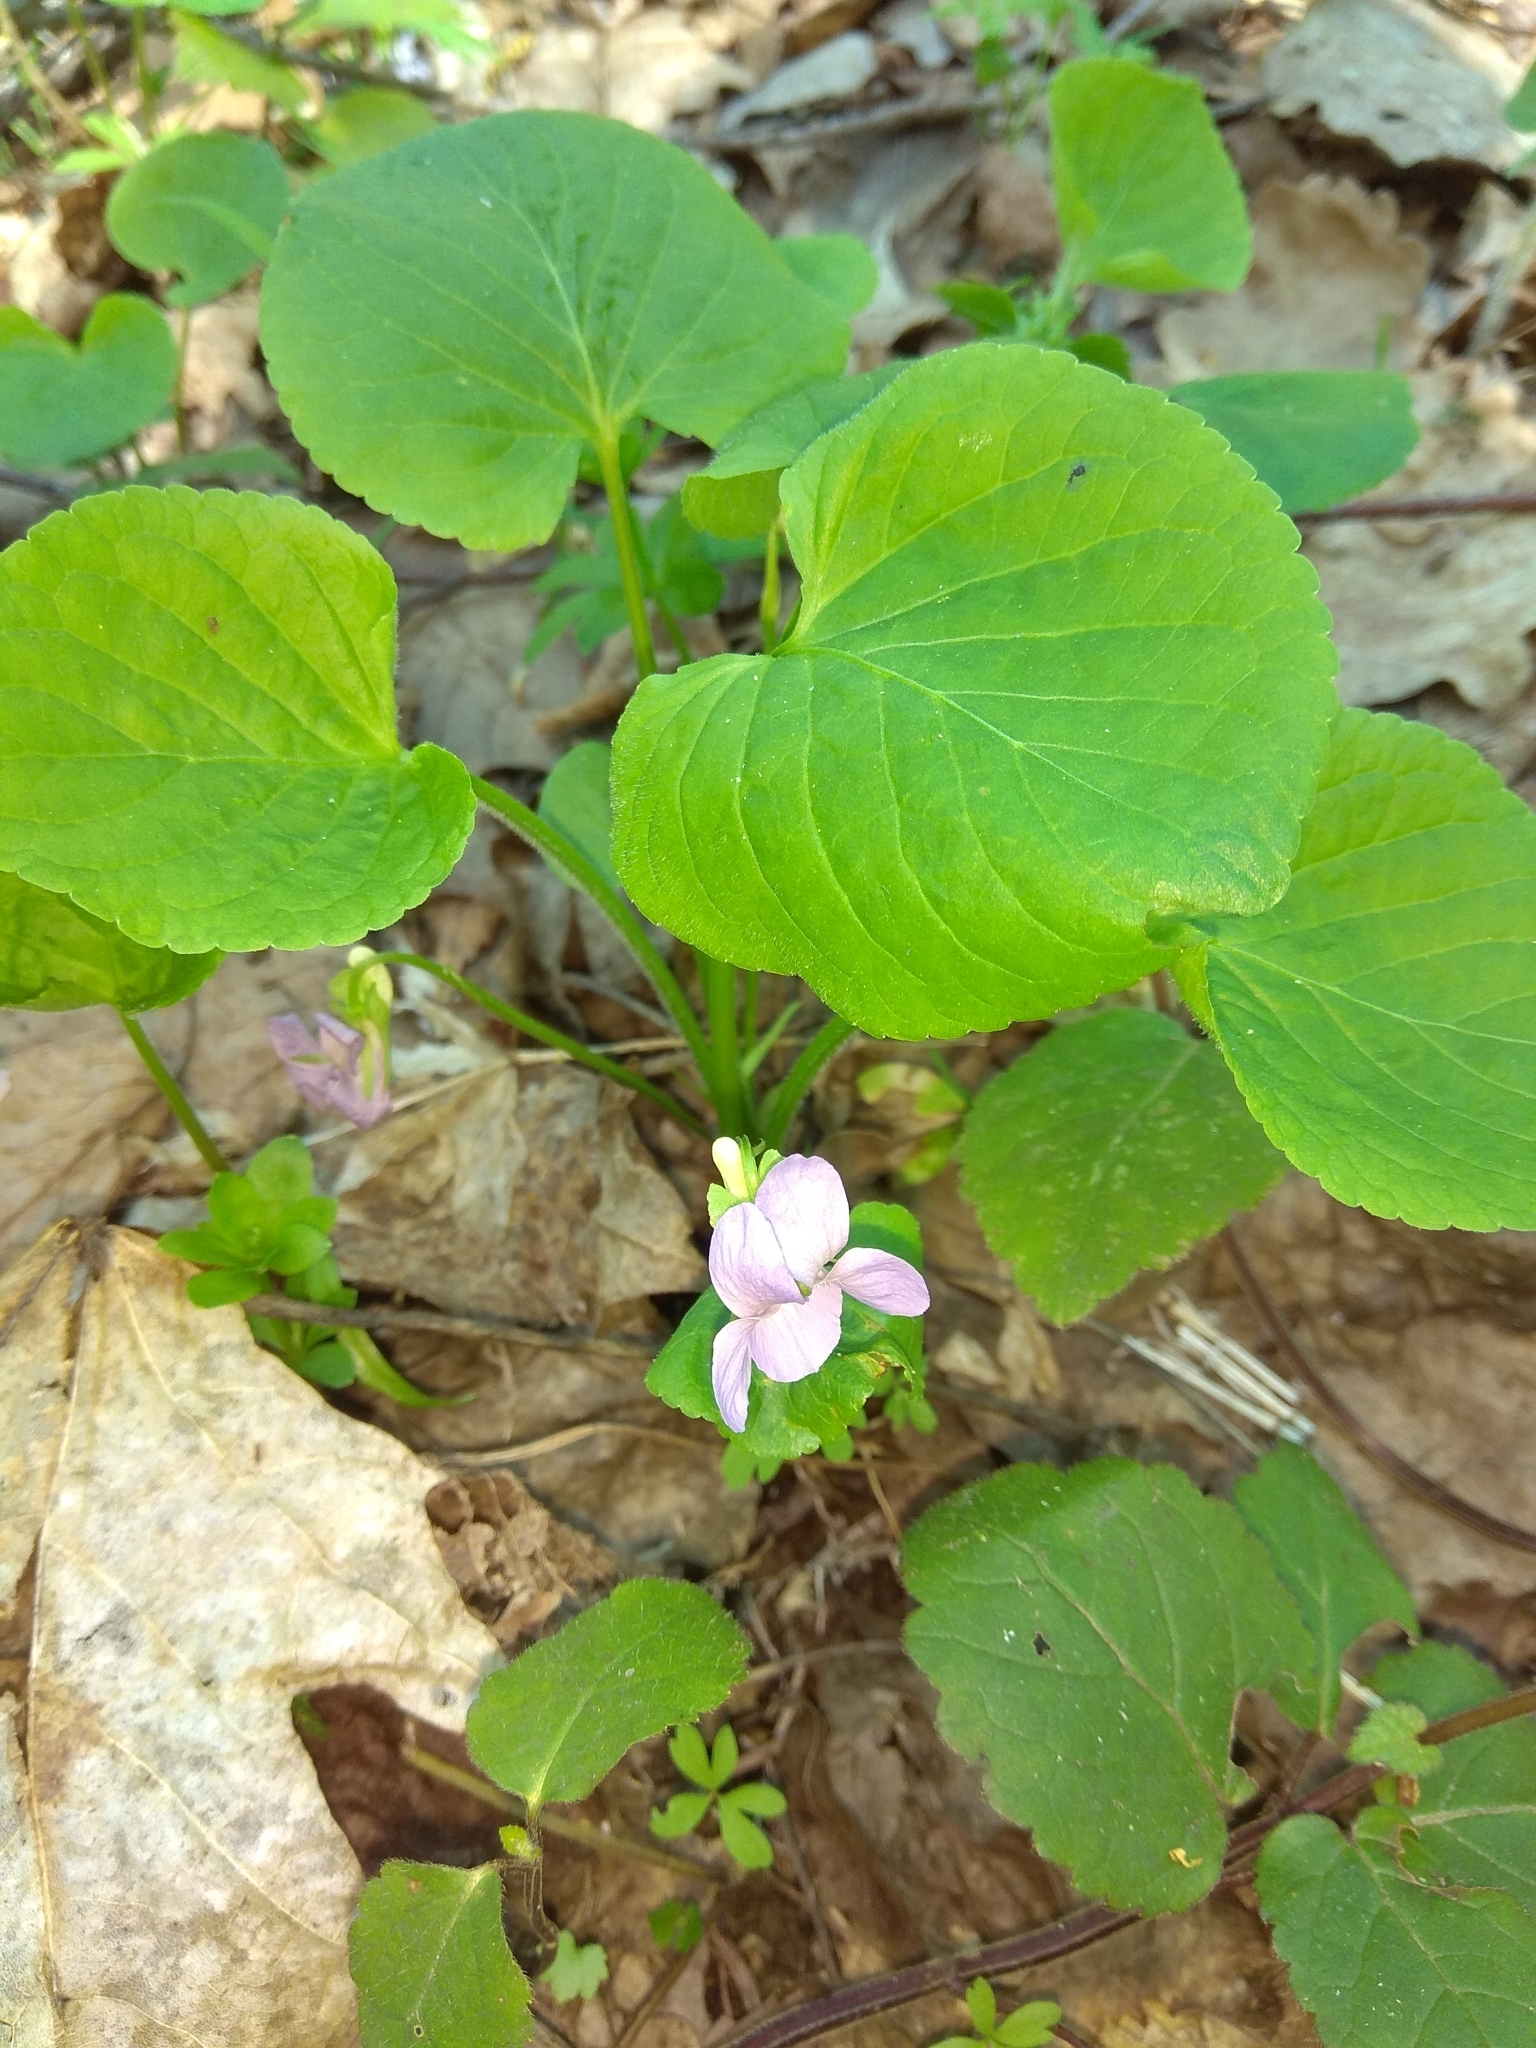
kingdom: Plantae
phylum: Tracheophyta
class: Magnoliopsida
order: Malpighiales
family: Violaceae
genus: Viola
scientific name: Viola mirabilis
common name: Wonder violet
